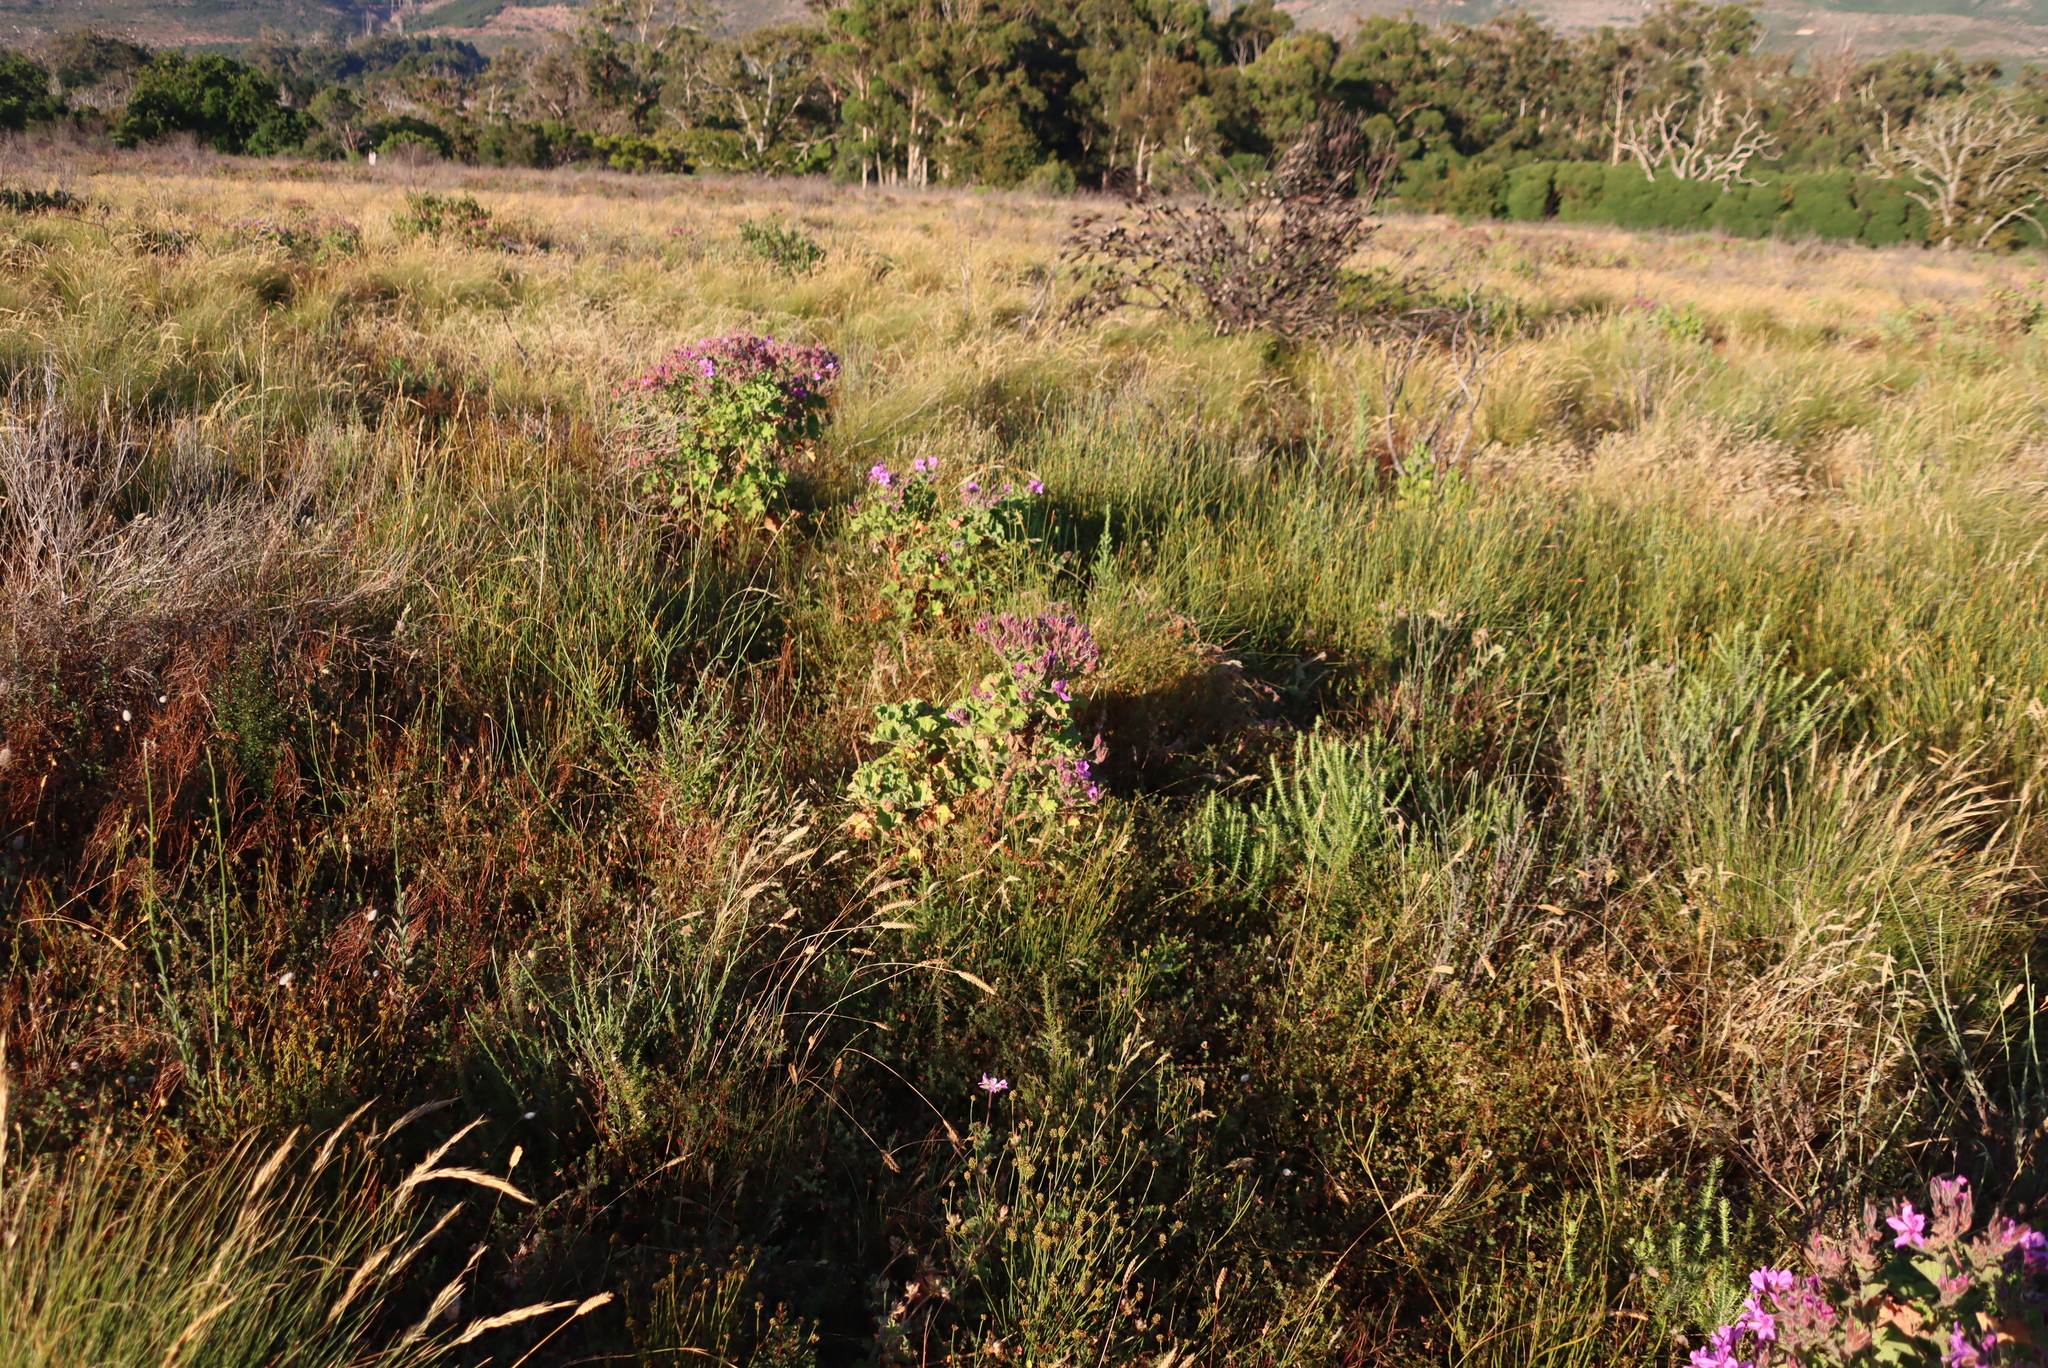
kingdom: Plantae
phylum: Tracheophyta
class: Magnoliopsida
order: Geraniales
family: Geraniaceae
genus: Pelargonium
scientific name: Pelargonium cucullatum
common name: Tree pelargonium
